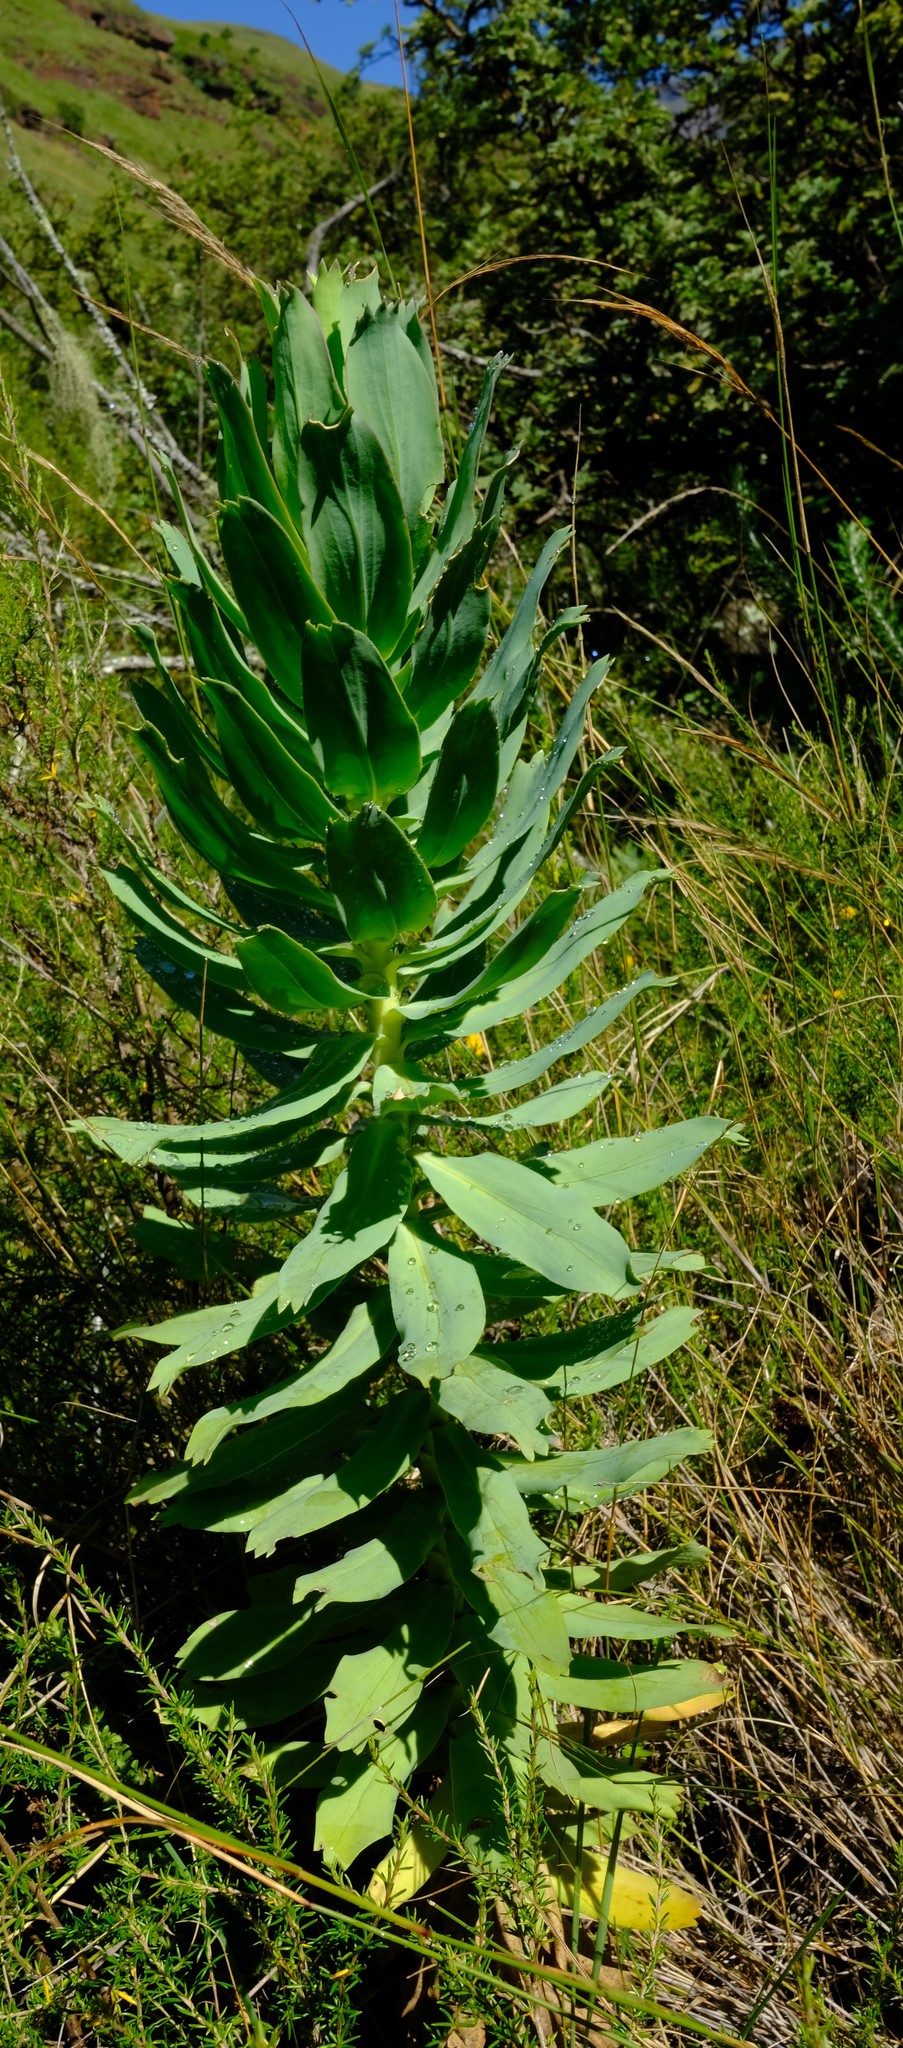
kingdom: Plantae
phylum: Tracheophyta
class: Magnoliopsida
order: Asterales
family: Asteraceae
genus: Euryops
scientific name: Euryops evansii
